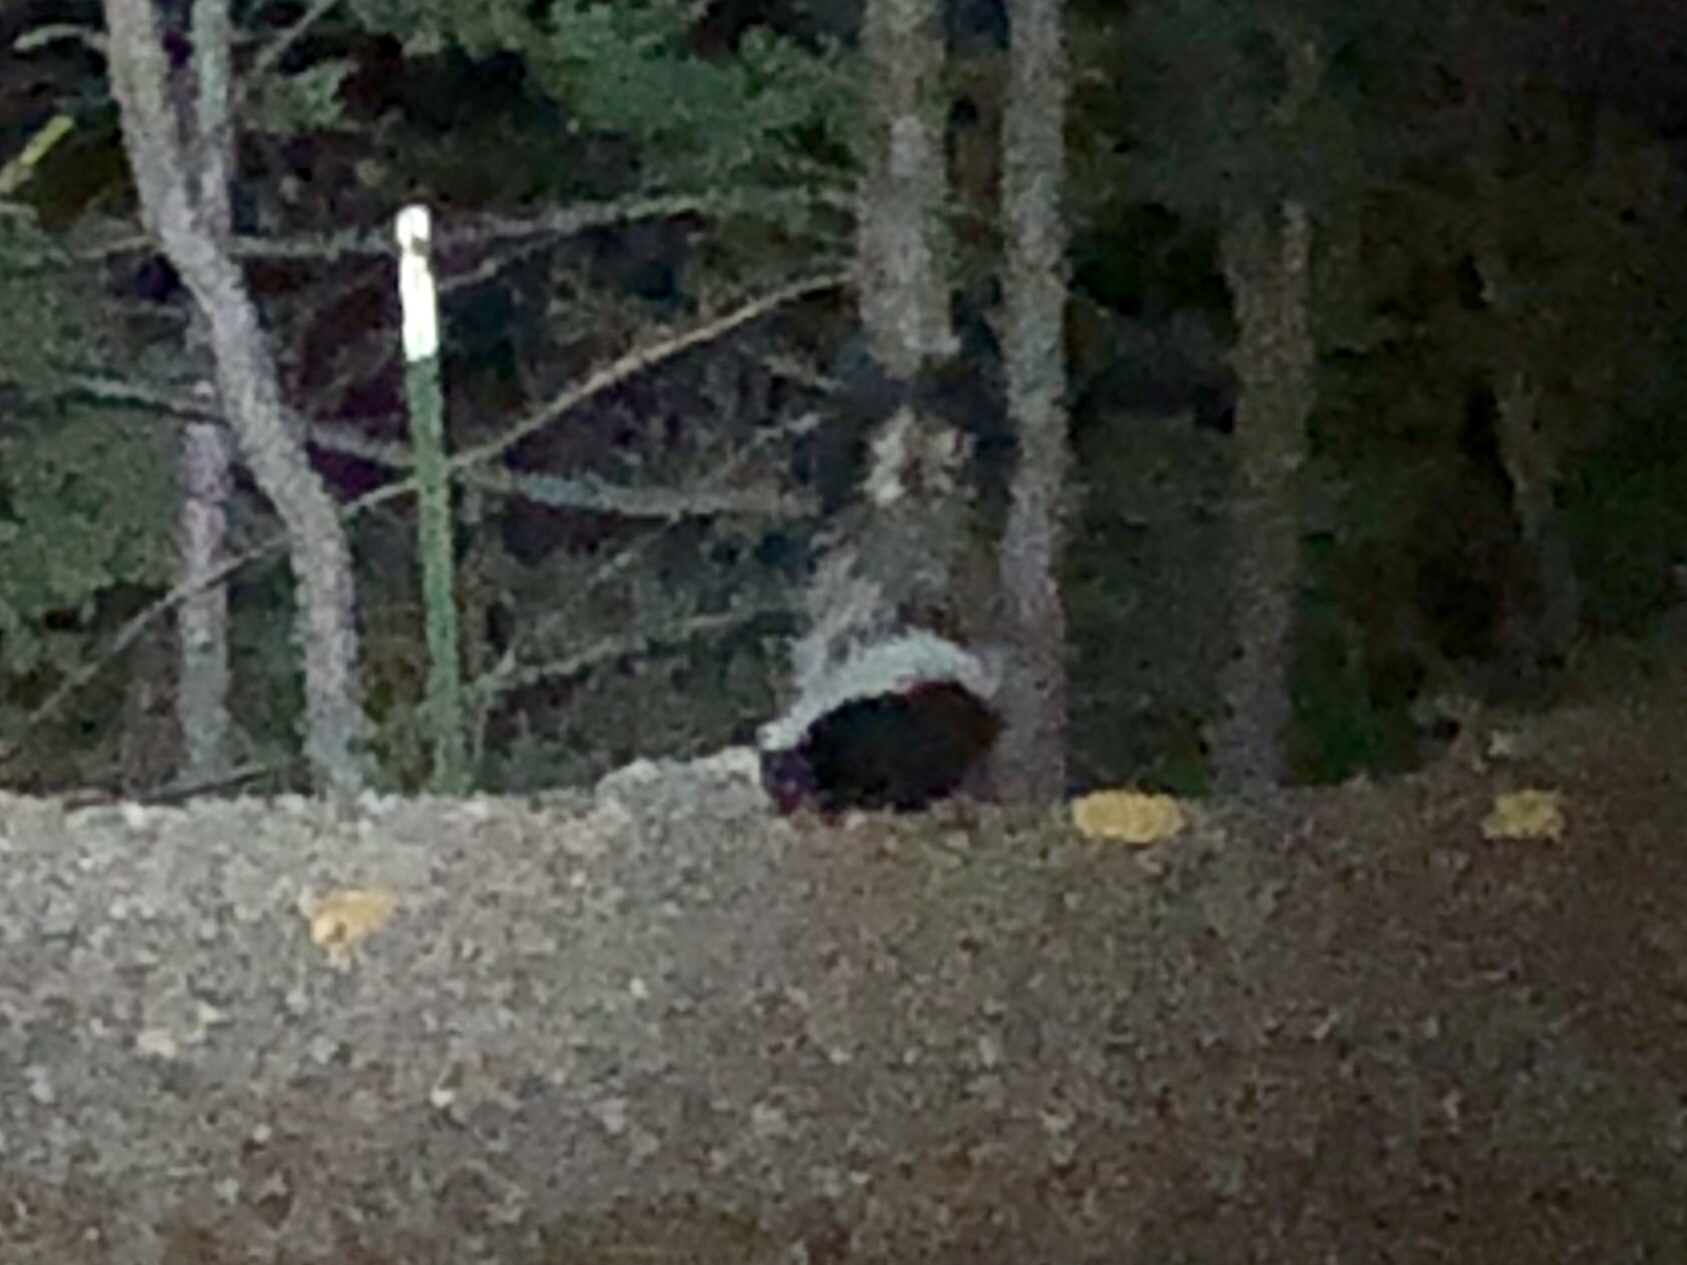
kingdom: Animalia
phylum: Chordata
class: Mammalia
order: Carnivora
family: Mephitidae
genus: Mephitis
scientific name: Mephitis mephitis
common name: Striped skunk
